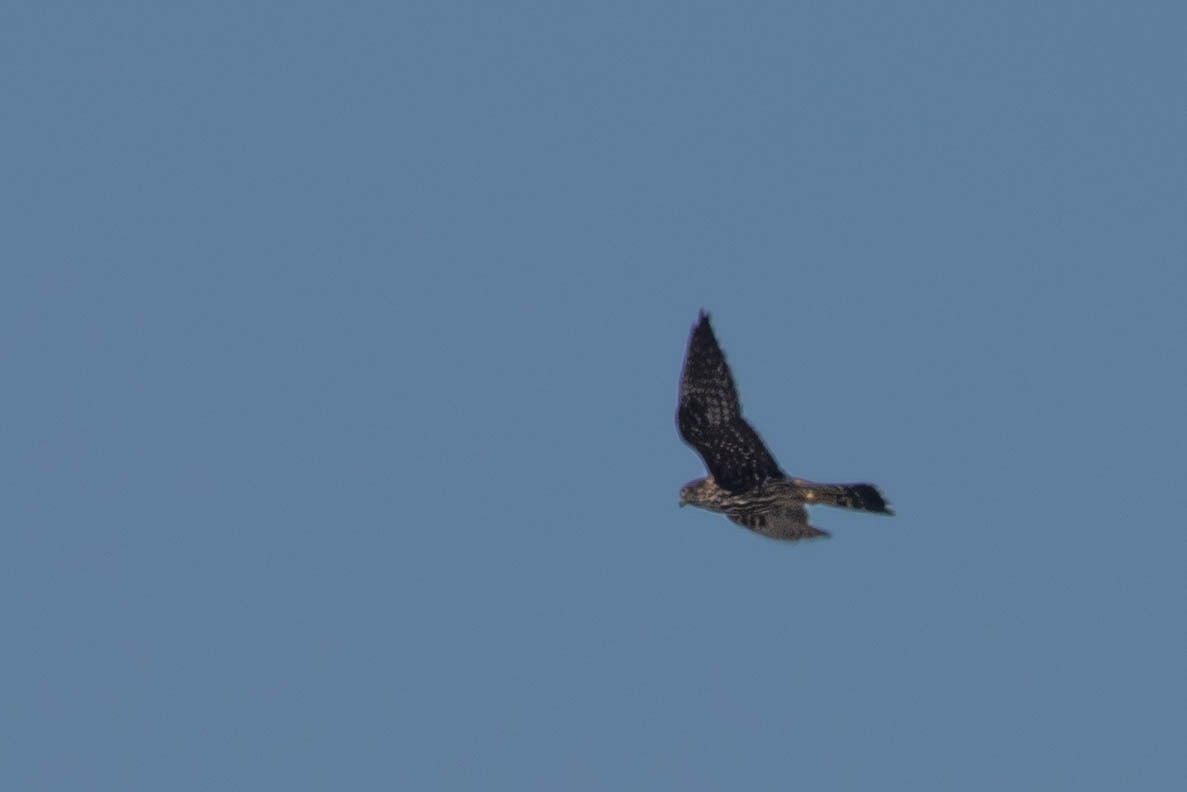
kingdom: Animalia
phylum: Chordata
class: Aves
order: Falconiformes
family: Falconidae
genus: Falco
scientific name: Falco columbarius
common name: Merlin
